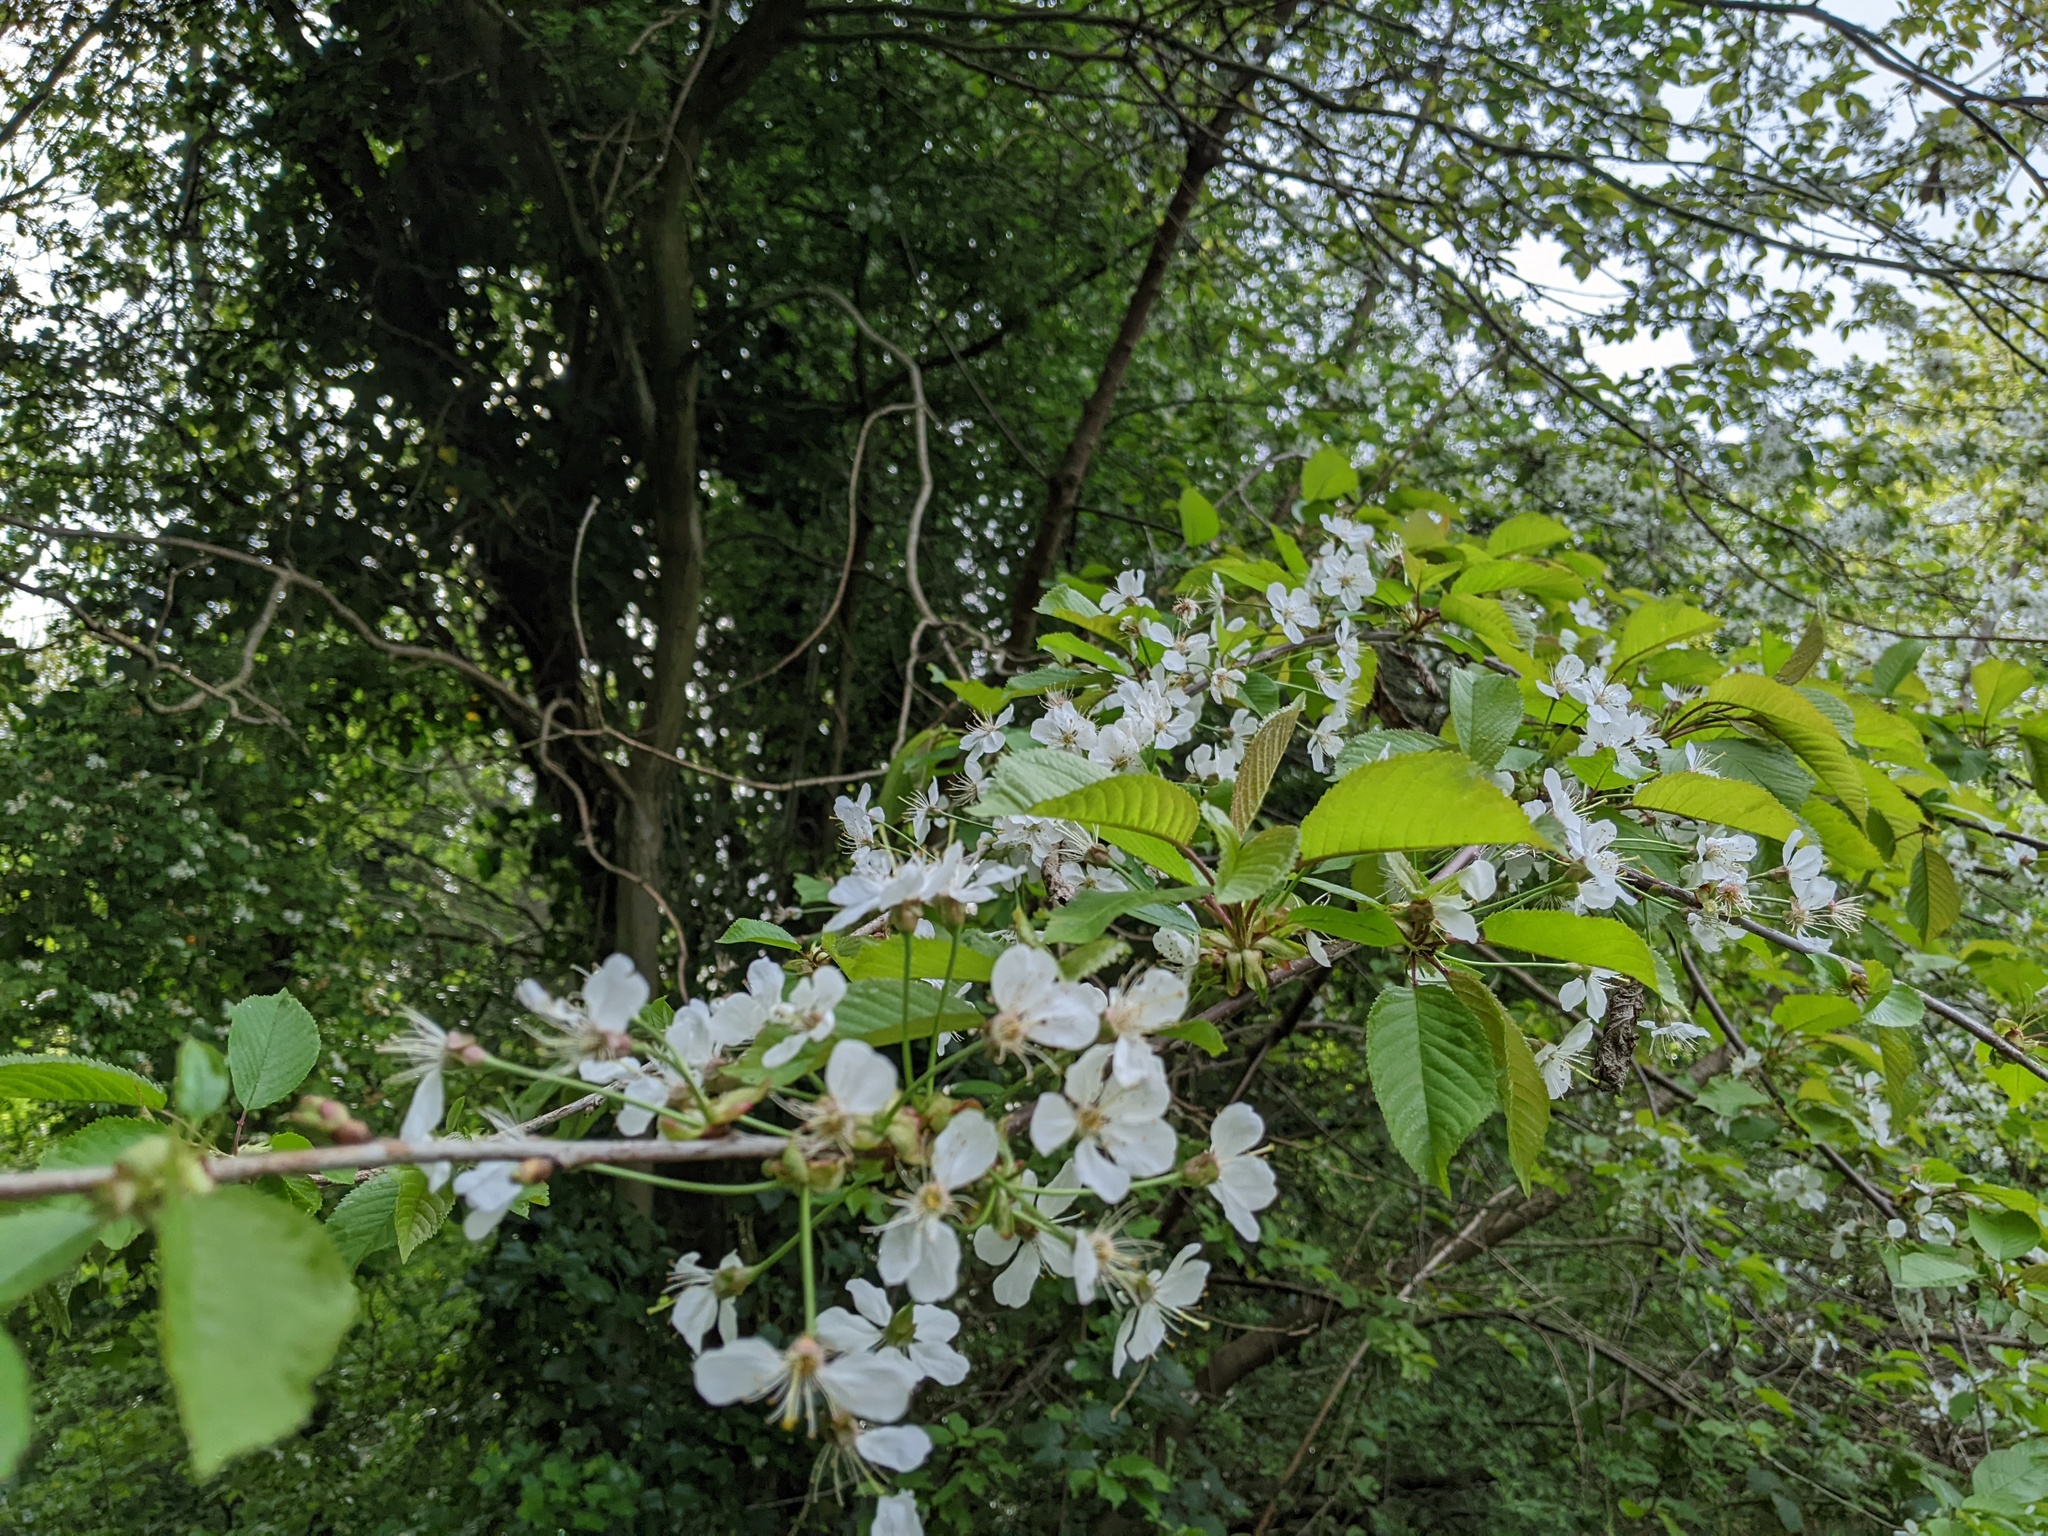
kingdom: Plantae
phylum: Tracheophyta
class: Magnoliopsida
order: Rosales
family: Rosaceae
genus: Prunus
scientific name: Prunus avium
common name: Sweet cherry
